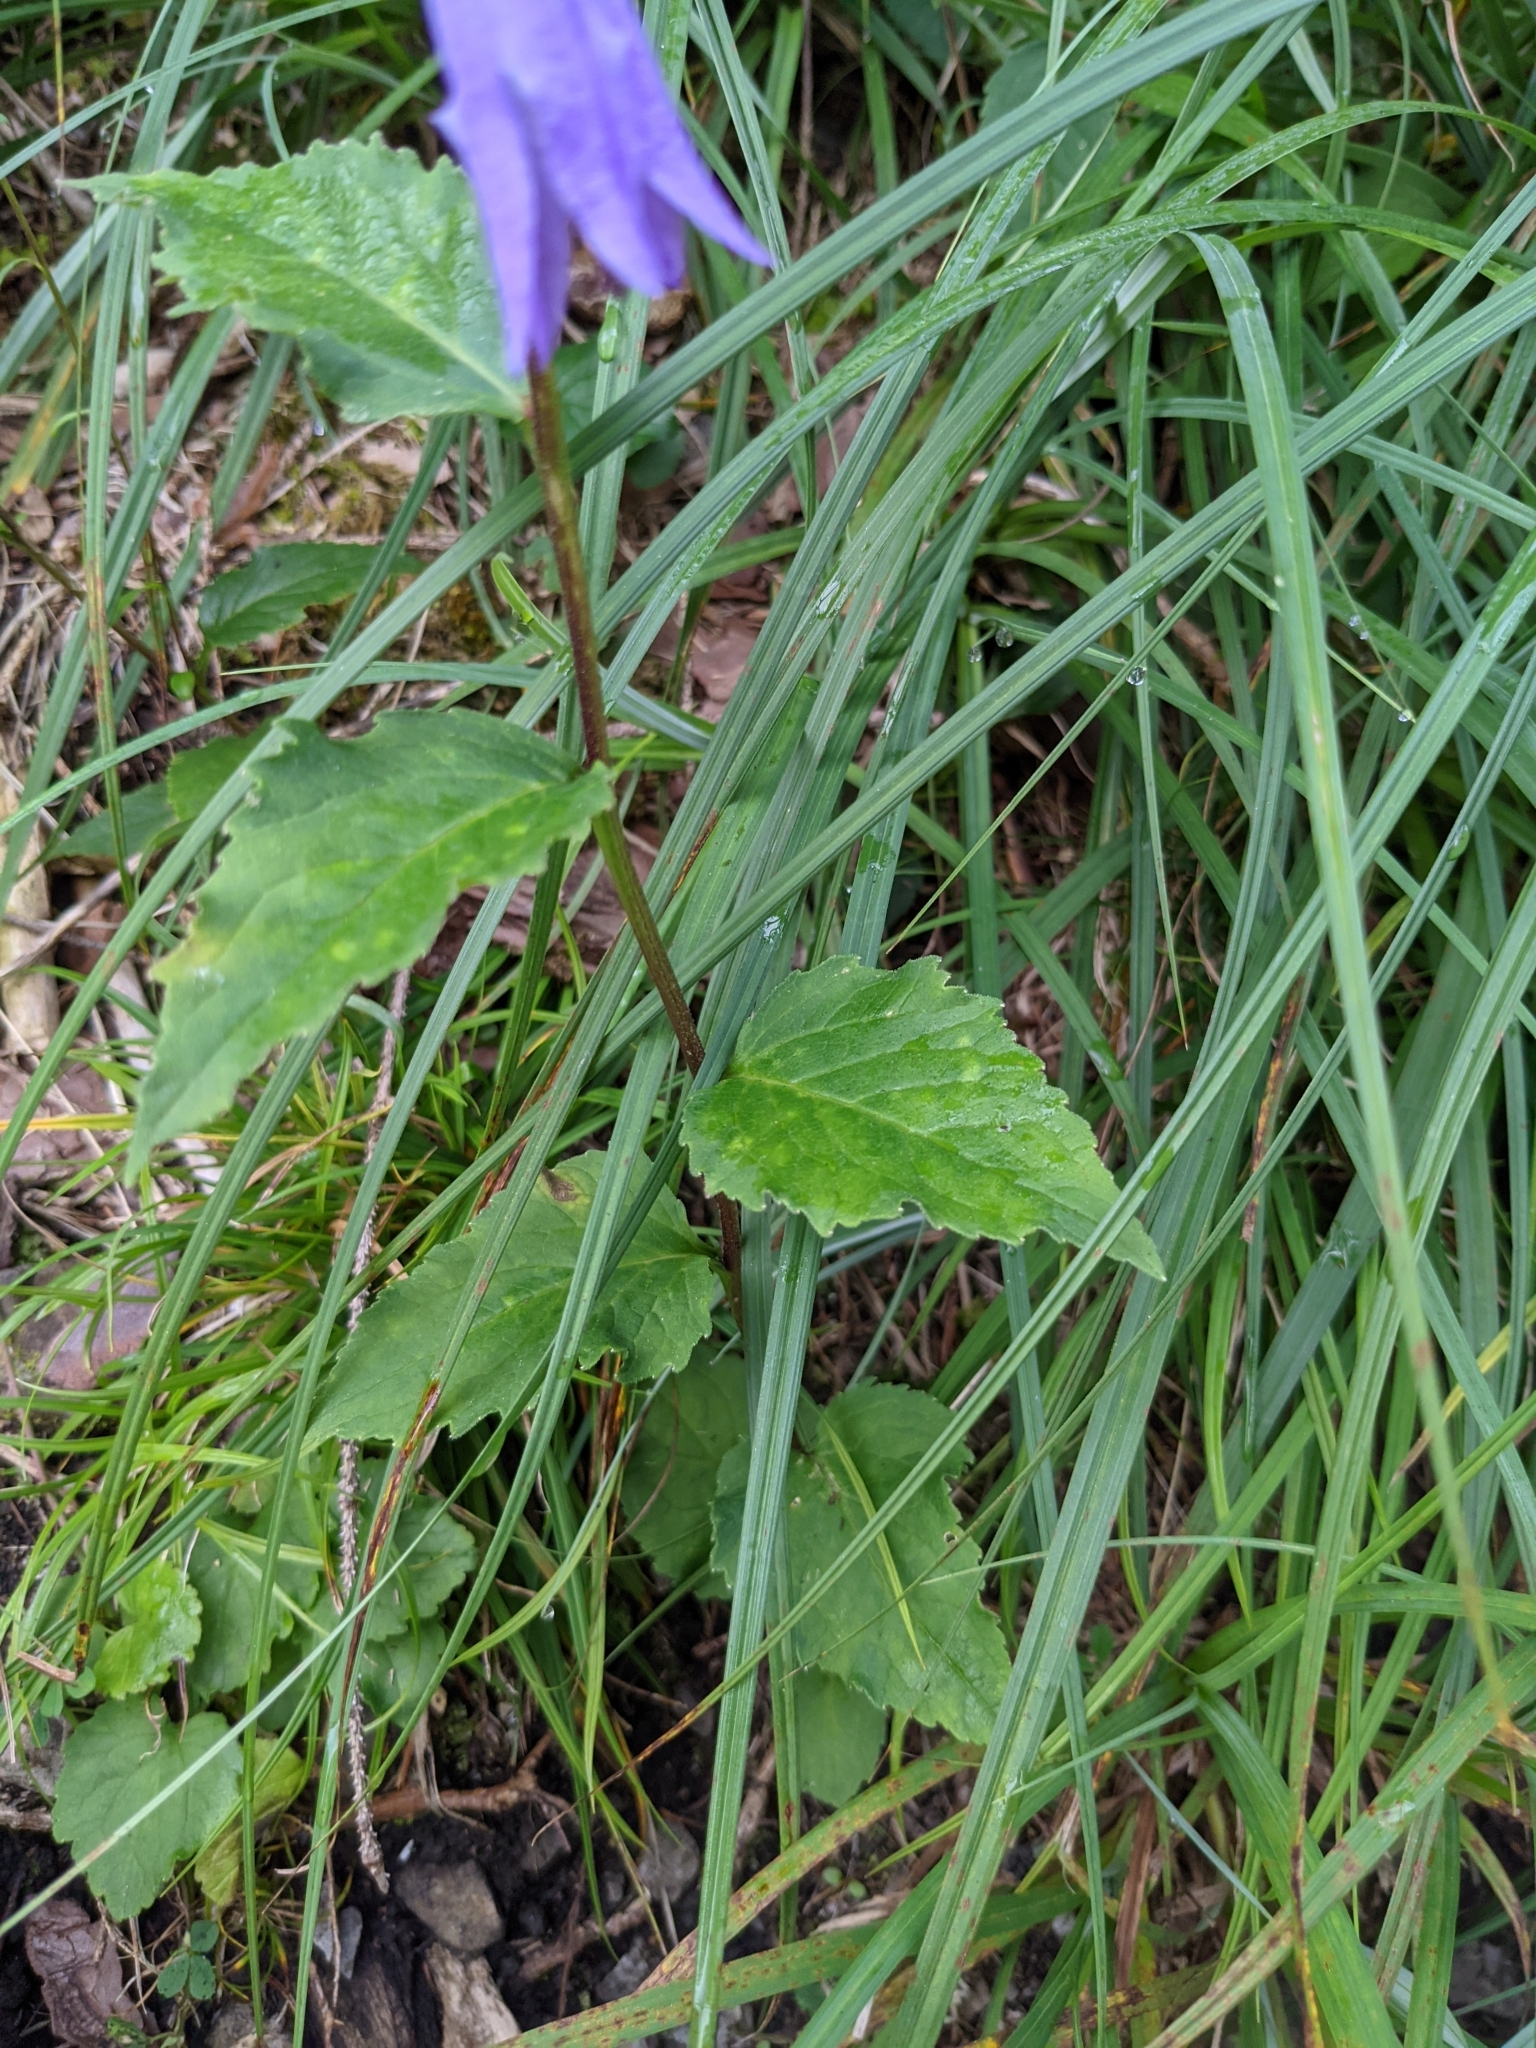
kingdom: Plantae
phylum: Tracheophyta
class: Magnoliopsida
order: Asterales
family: Campanulaceae
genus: Campanula
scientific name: Campanula rapunculoides
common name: Creeping bellflower
